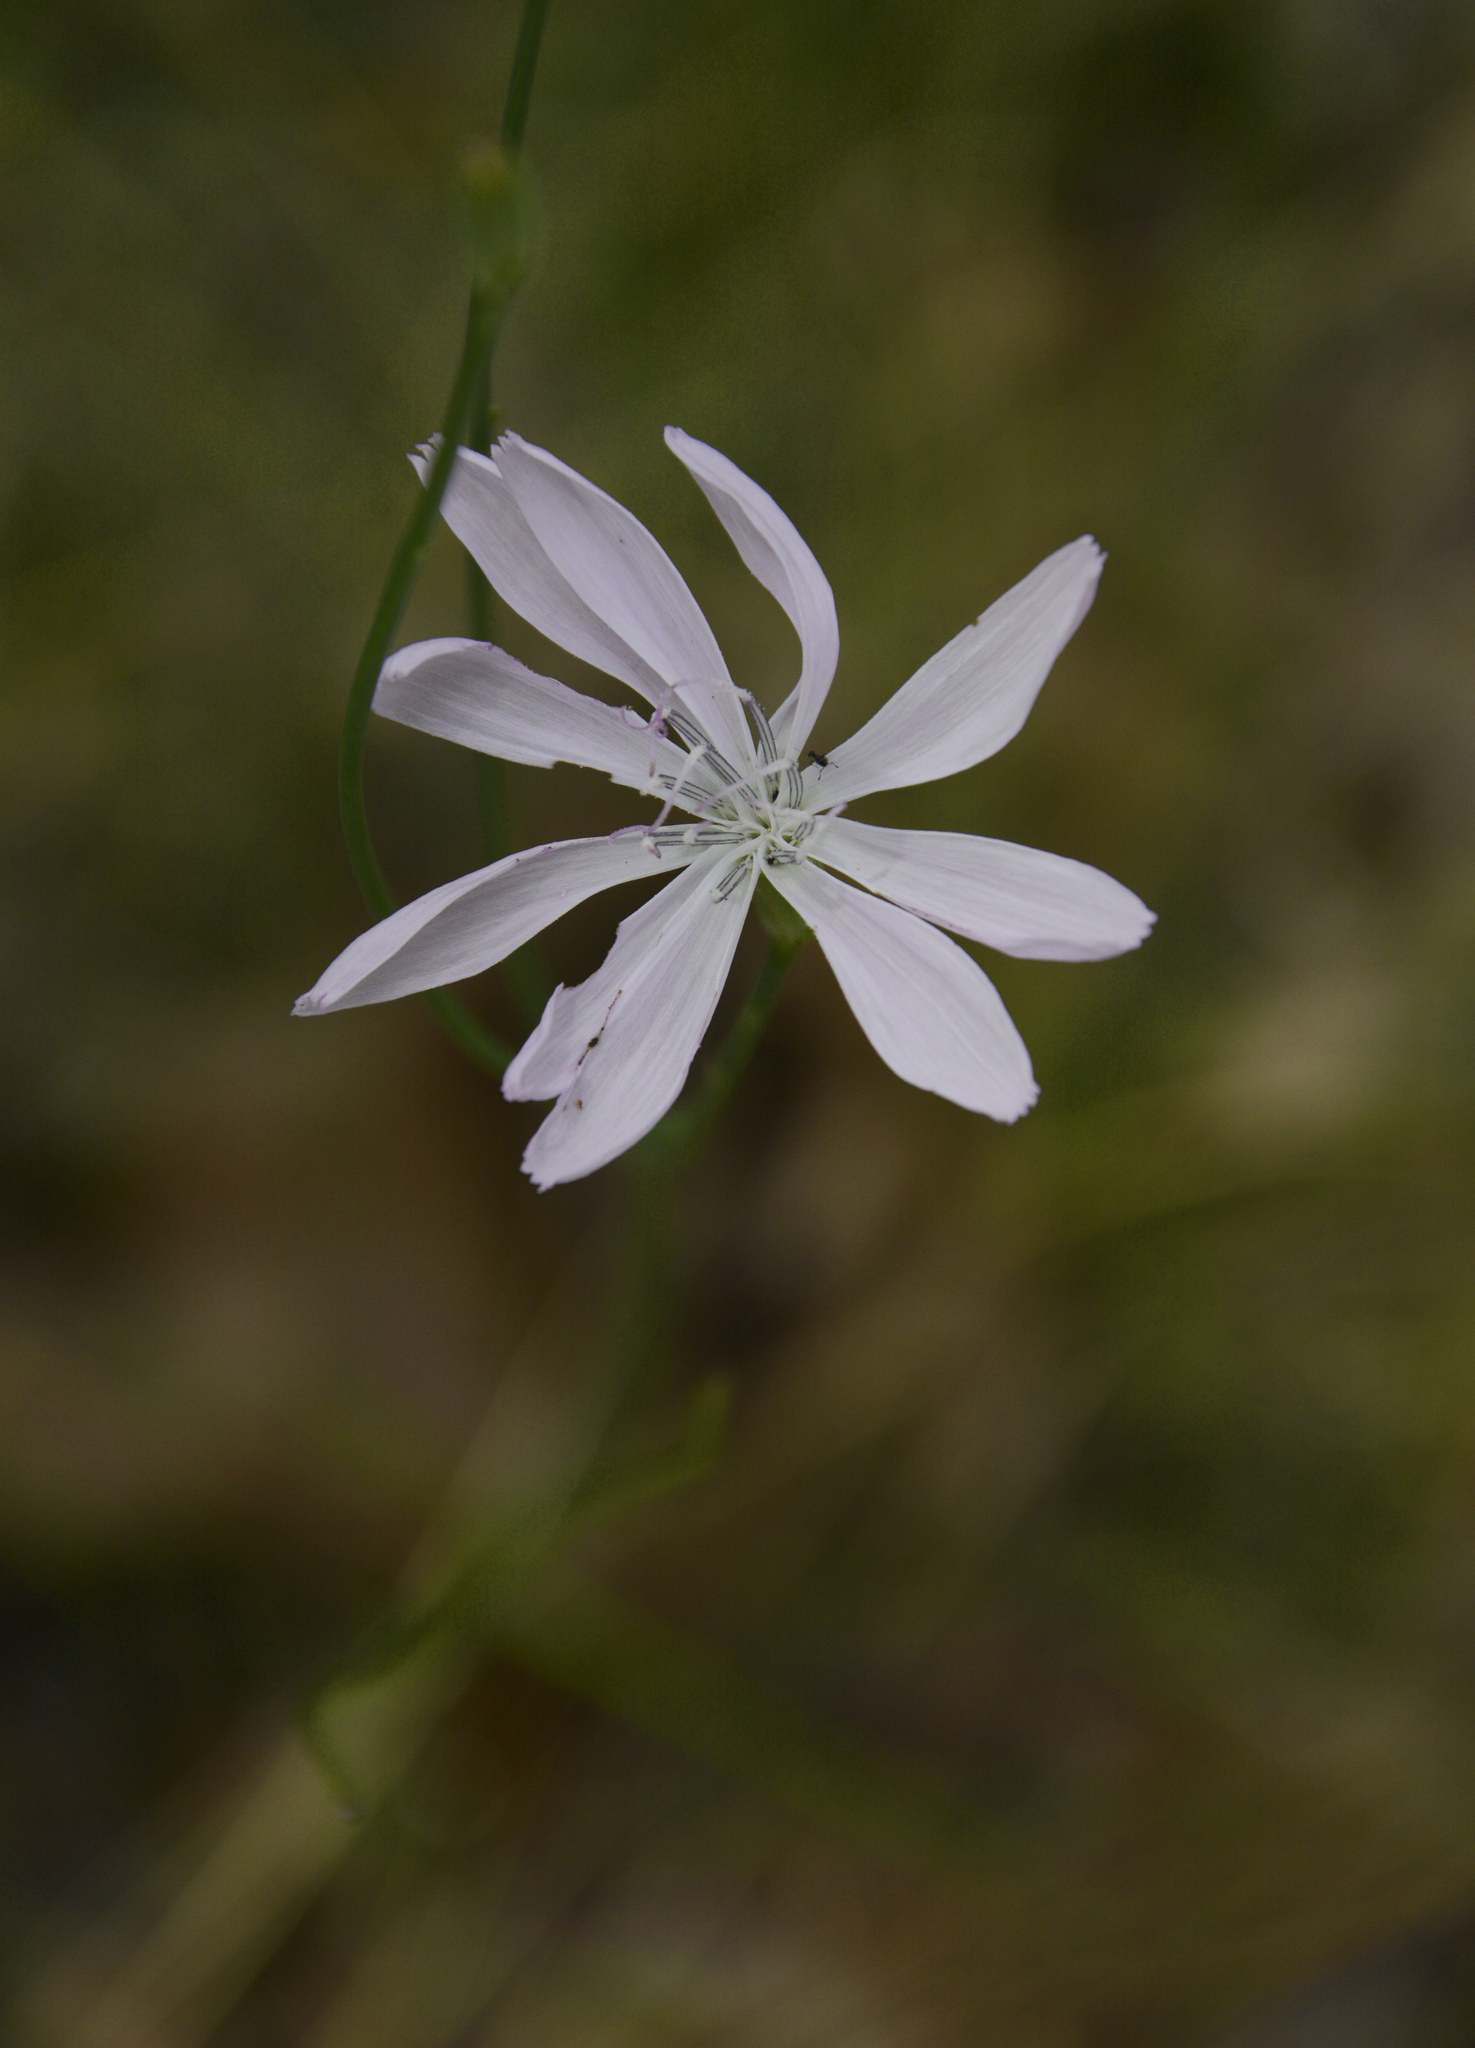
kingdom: Plantae
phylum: Tracheophyta
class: Magnoliopsida
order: Asterales
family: Asteraceae
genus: Lygodesmia
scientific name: Lygodesmia aphylla
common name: Rose-rush
